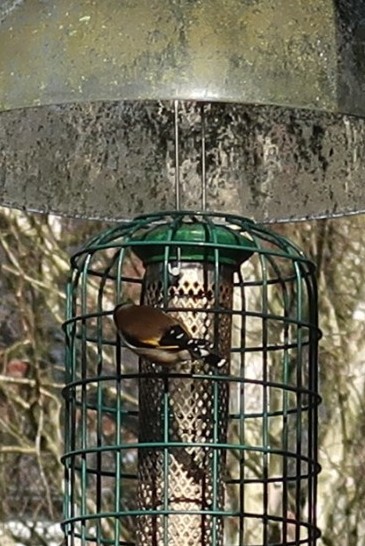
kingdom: Animalia
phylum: Chordata
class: Aves
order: Passeriformes
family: Fringillidae
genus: Carduelis
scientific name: Carduelis carduelis
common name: European goldfinch
